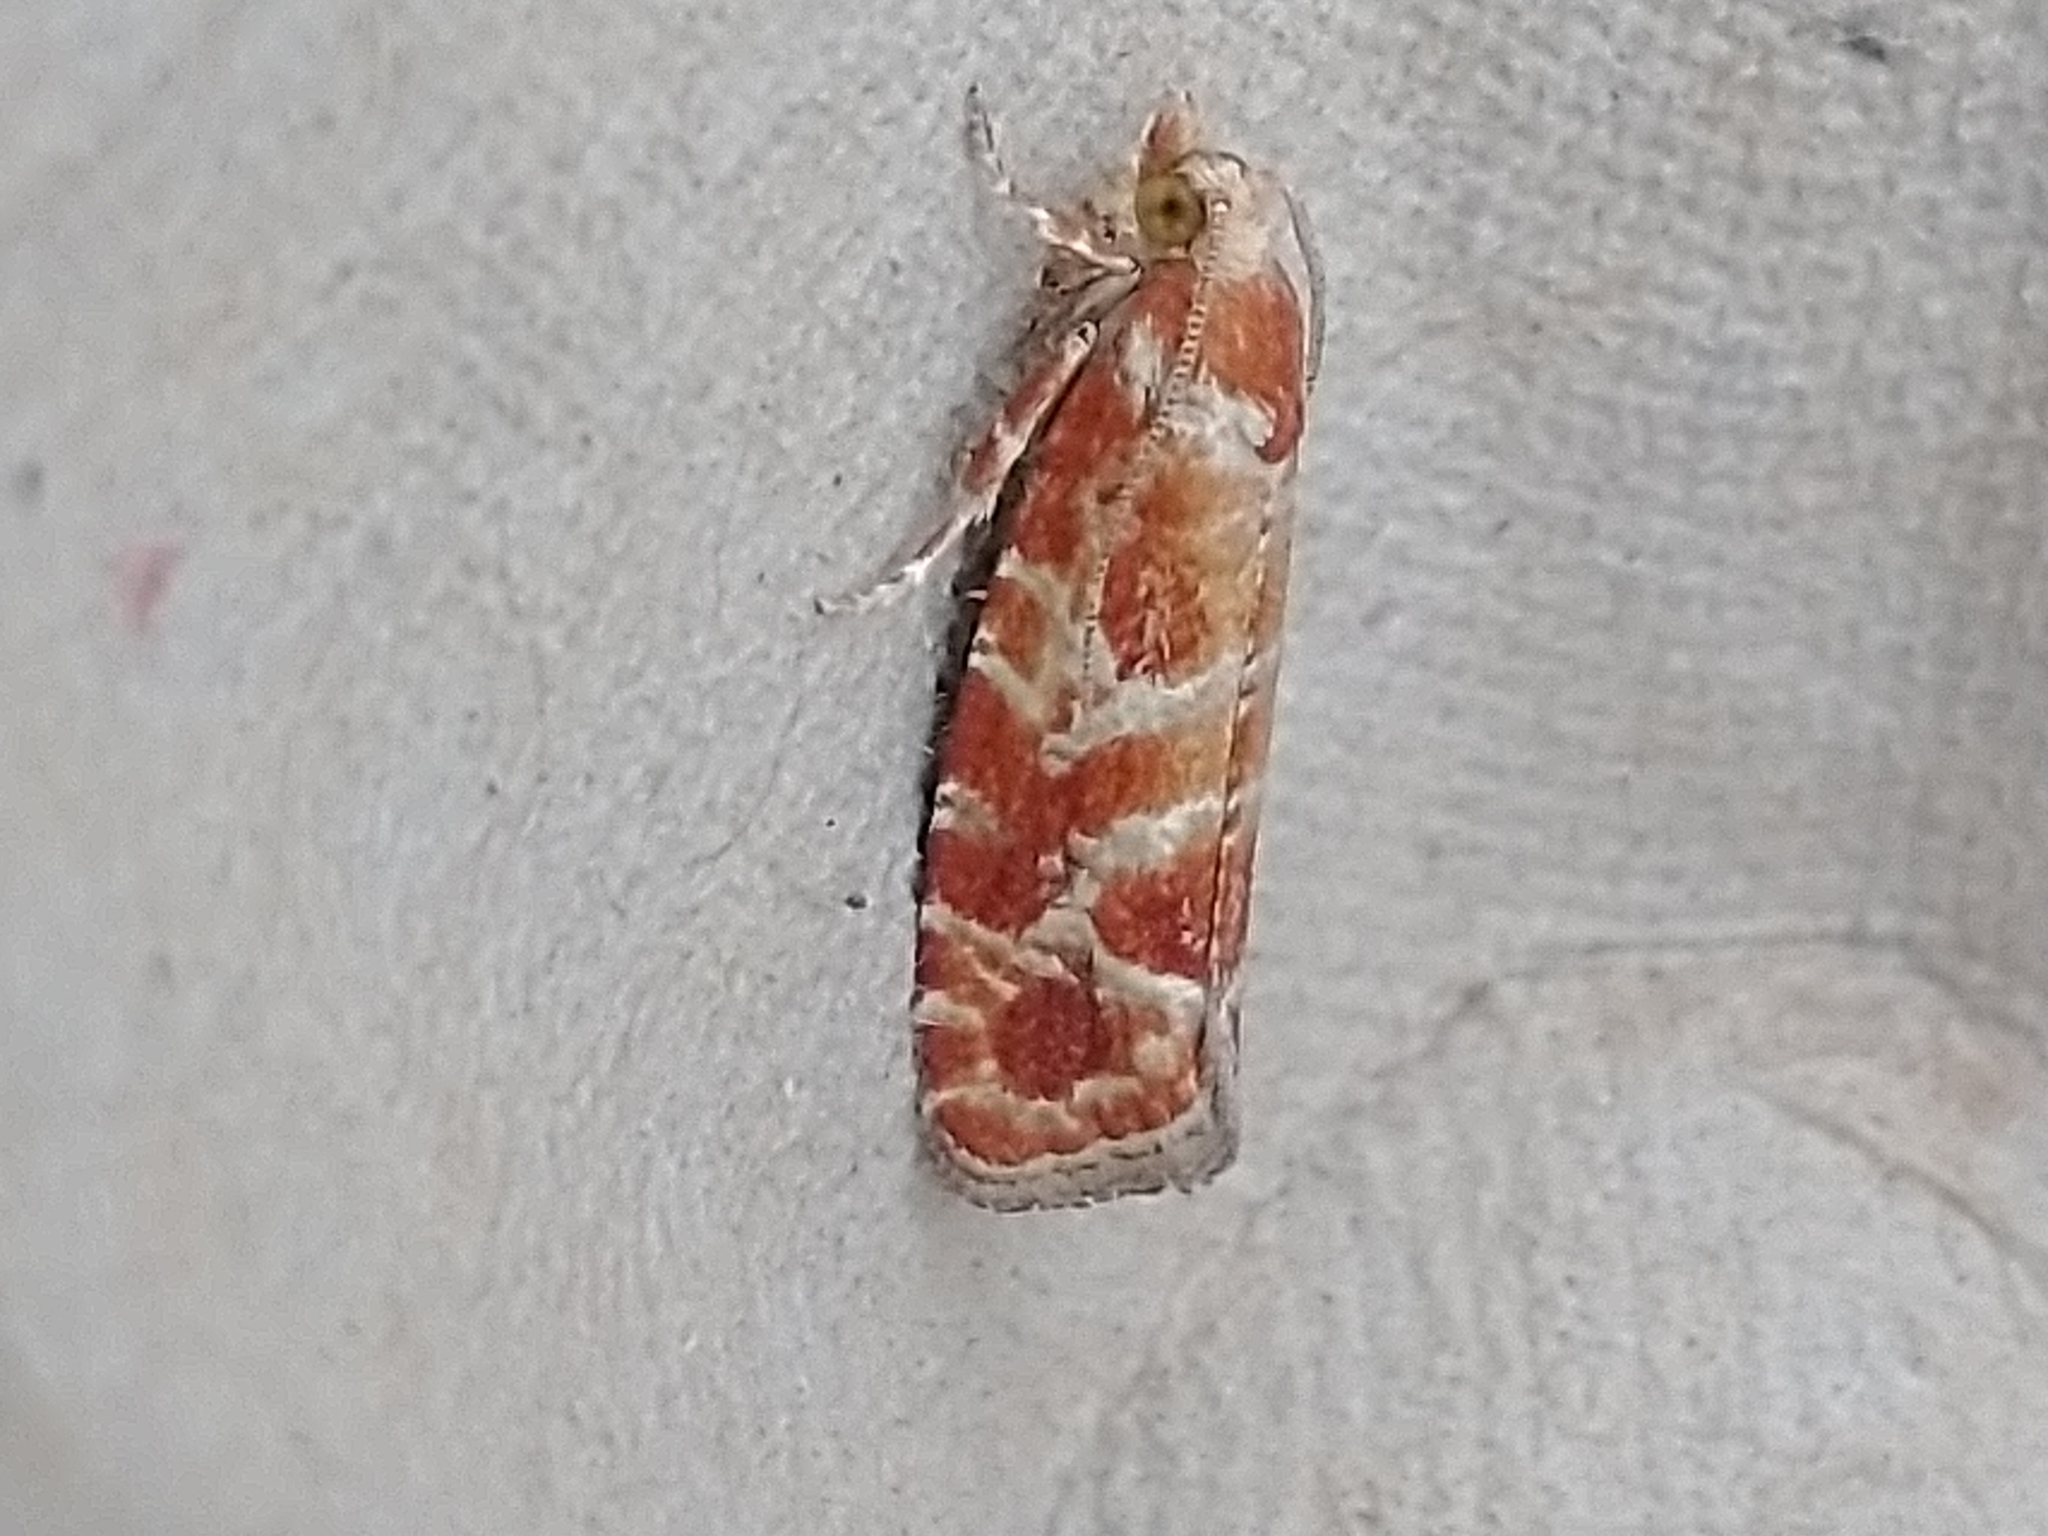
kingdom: Animalia
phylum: Arthropoda
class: Insecta
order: Lepidoptera
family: Tortricidae
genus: Rhyacionia
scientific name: Rhyacionia pinicolana
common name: Orange-spotted shoot
